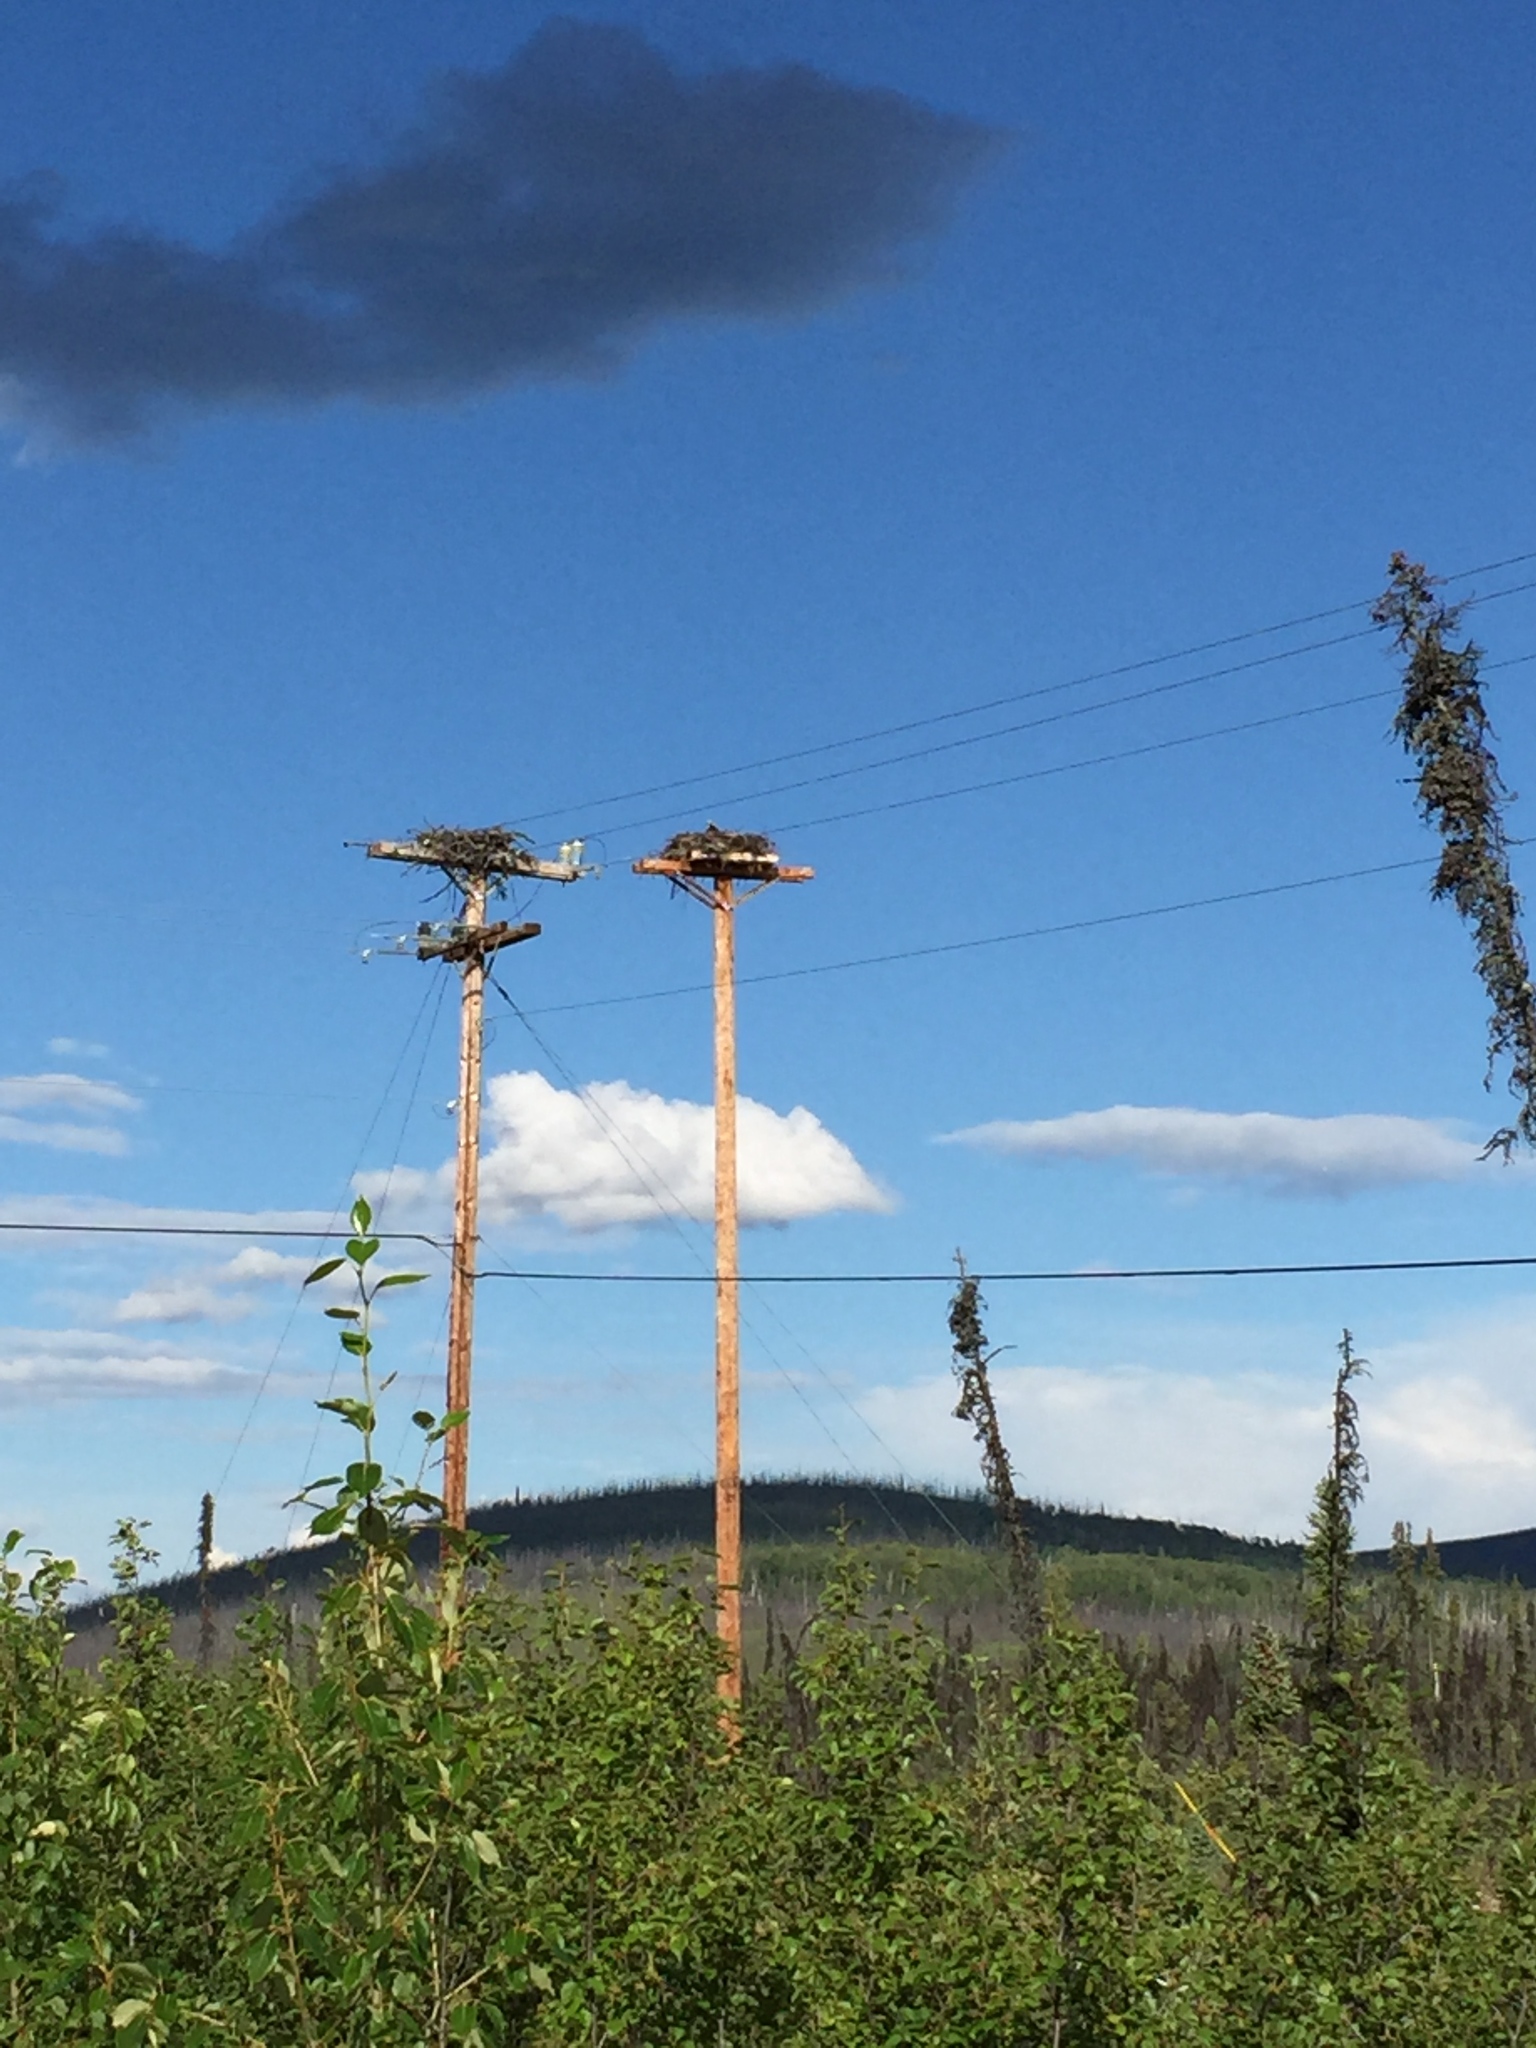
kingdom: Animalia
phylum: Chordata
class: Aves
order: Accipitriformes
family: Pandionidae
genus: Pandion
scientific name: Pandion haliaetus
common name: Osprey
